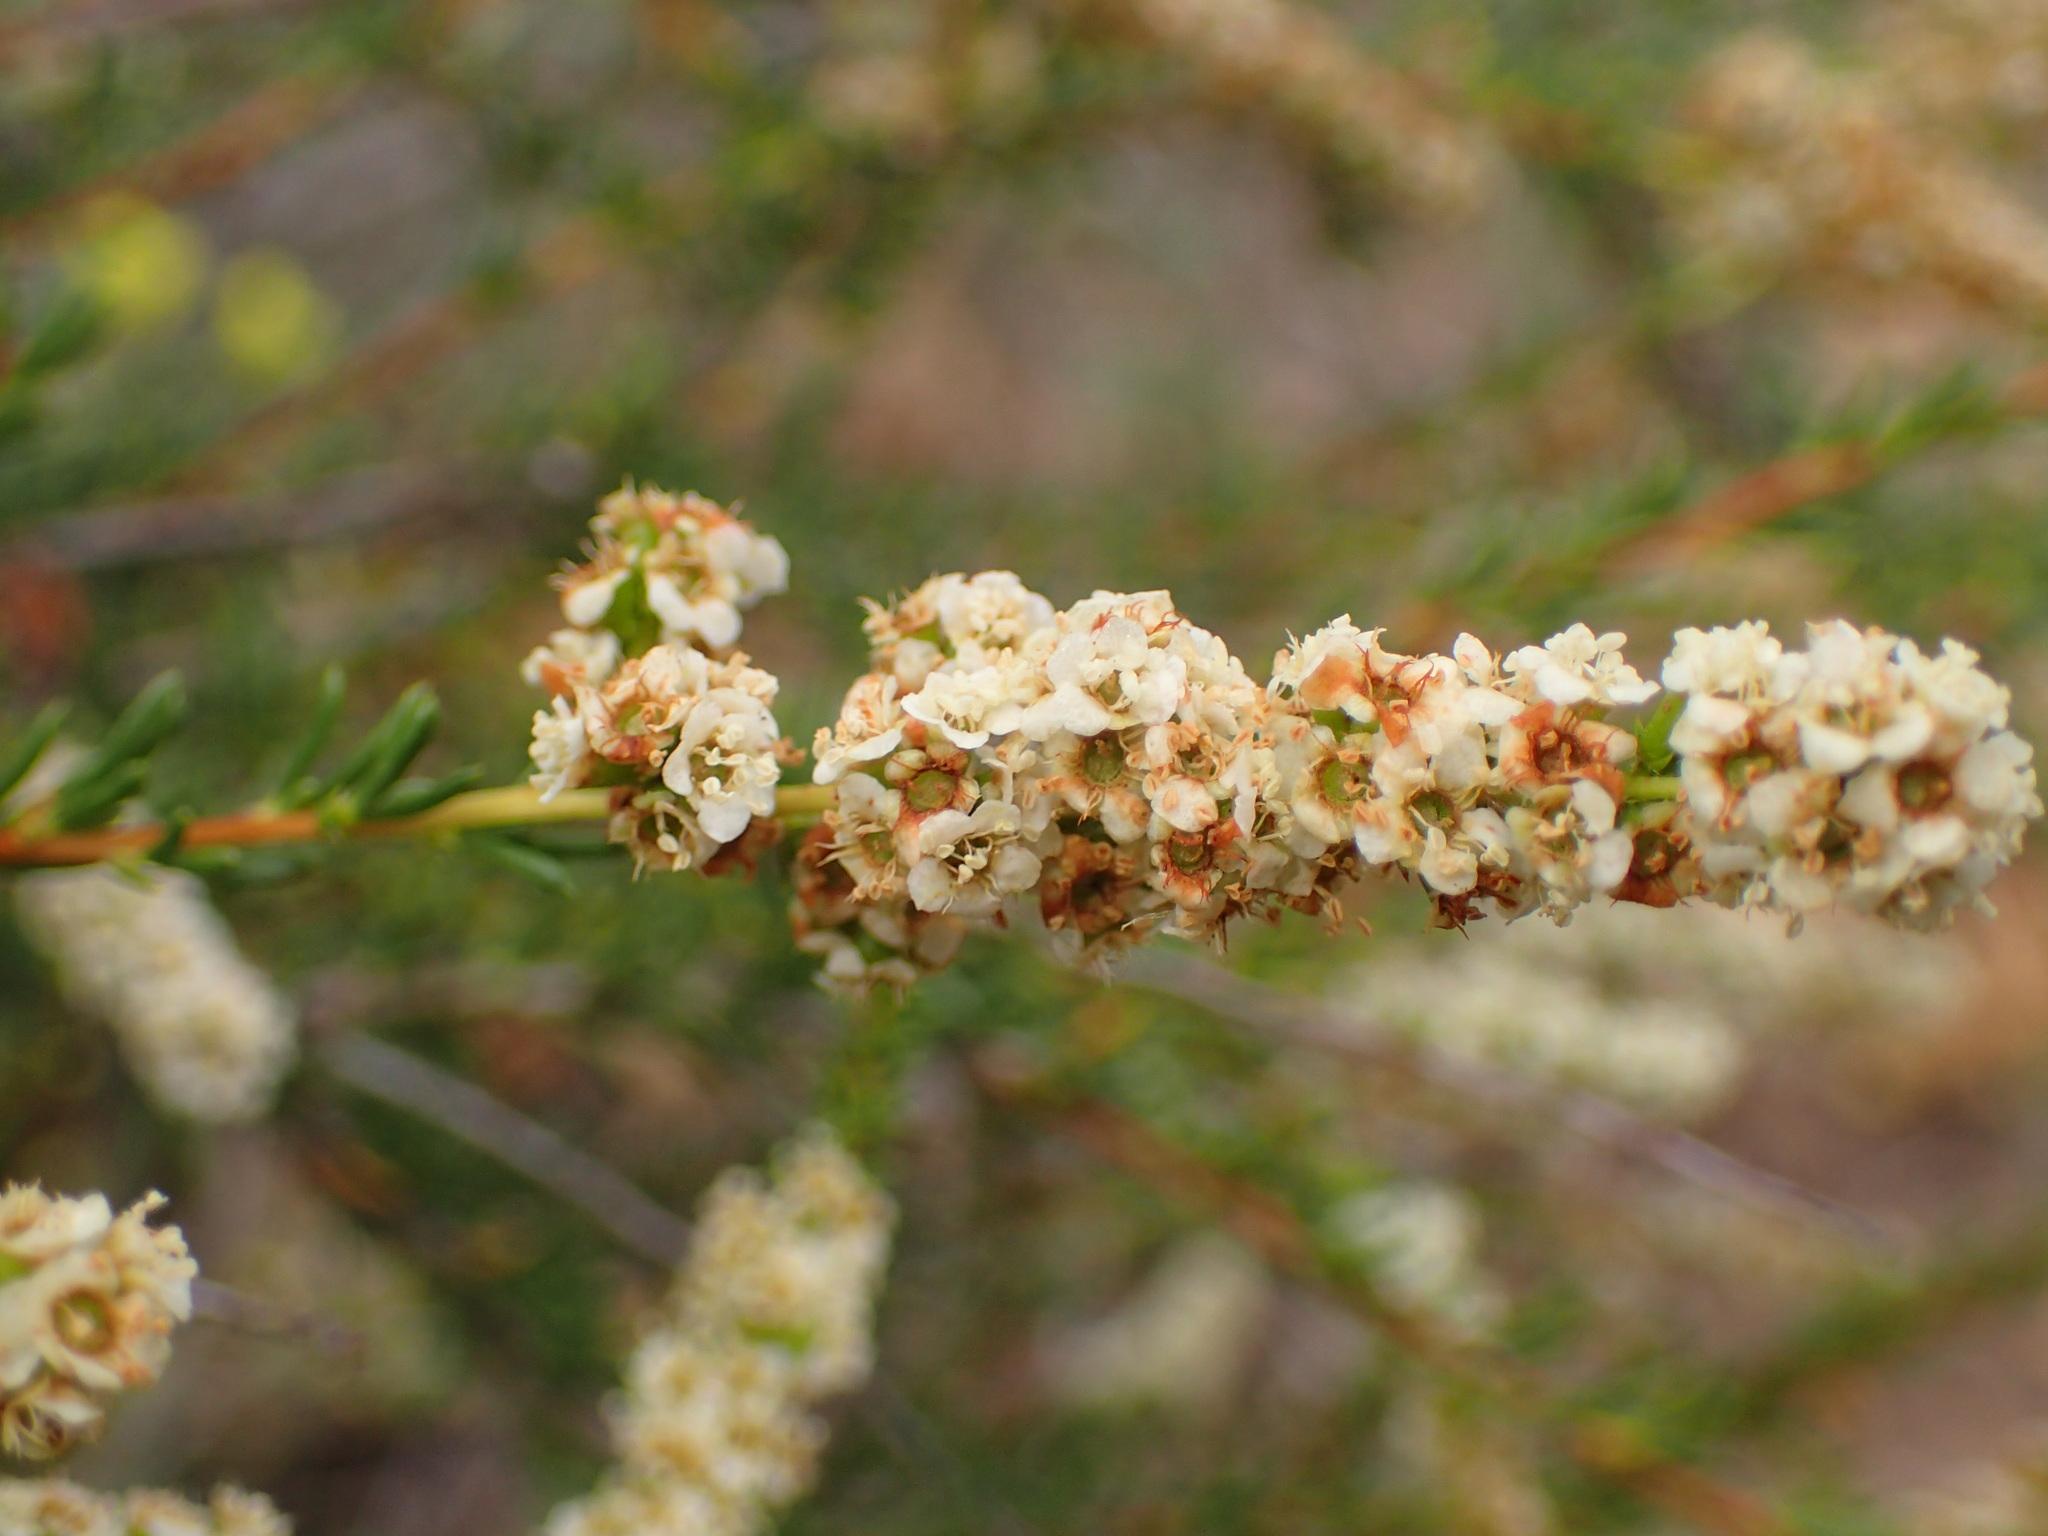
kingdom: Plantae
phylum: Tracheophyta
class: Magnoliopsida
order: Rosales
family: Rosaceae
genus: Adenostoma
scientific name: Adenostoma fasciculatum
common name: Chamise
